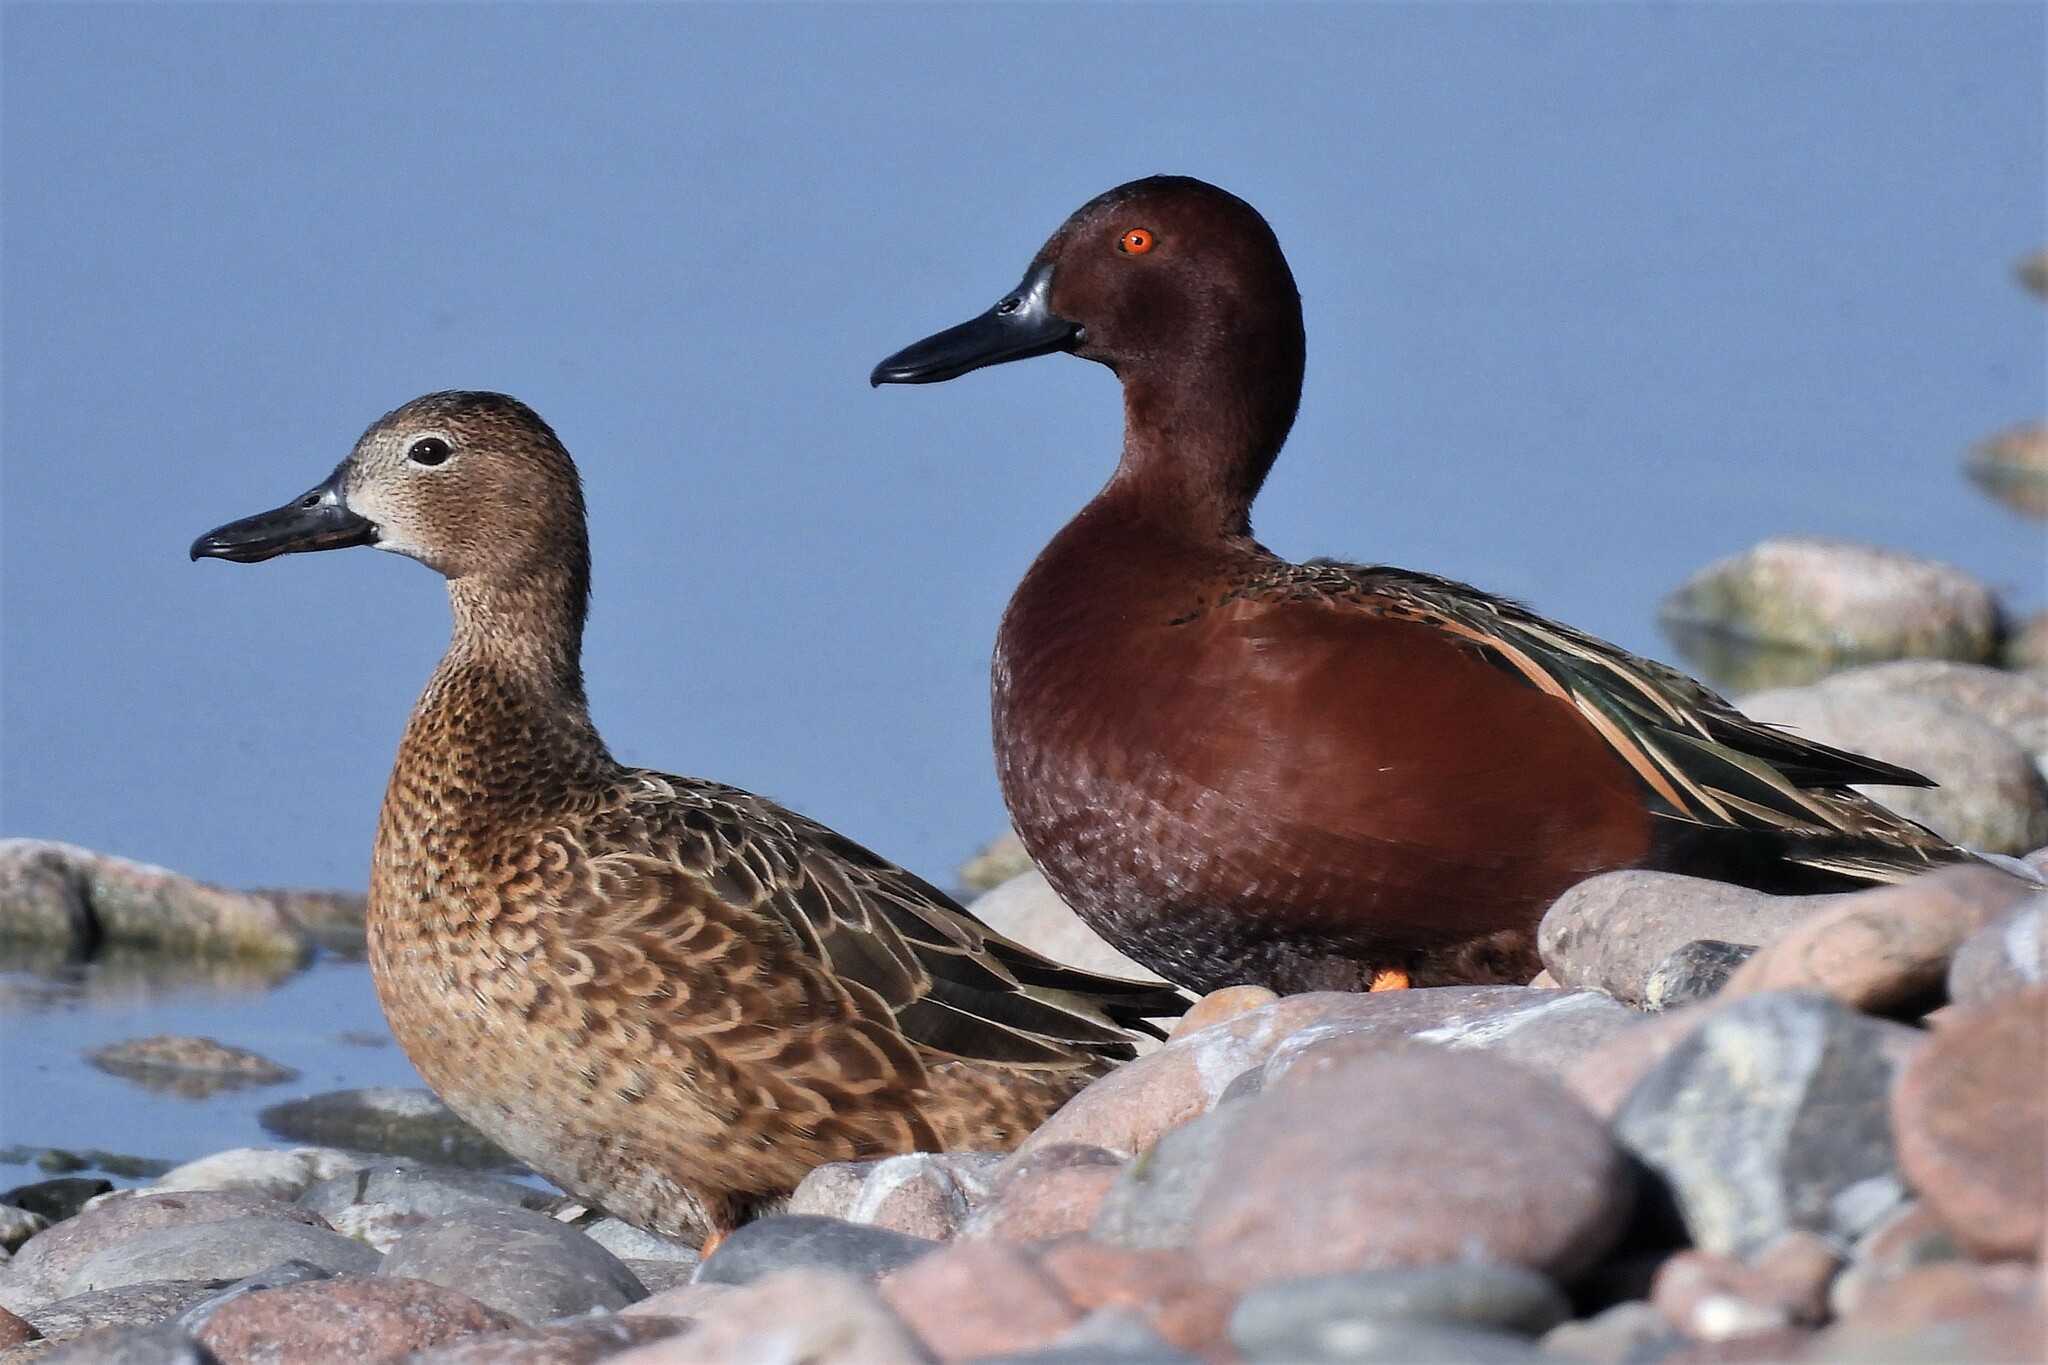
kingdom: Animalia
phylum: Chordata
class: Aves
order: Anseriformes
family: Anatidae
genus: Spatula
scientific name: Spatula cyanoptera
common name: Cinnamon teal
